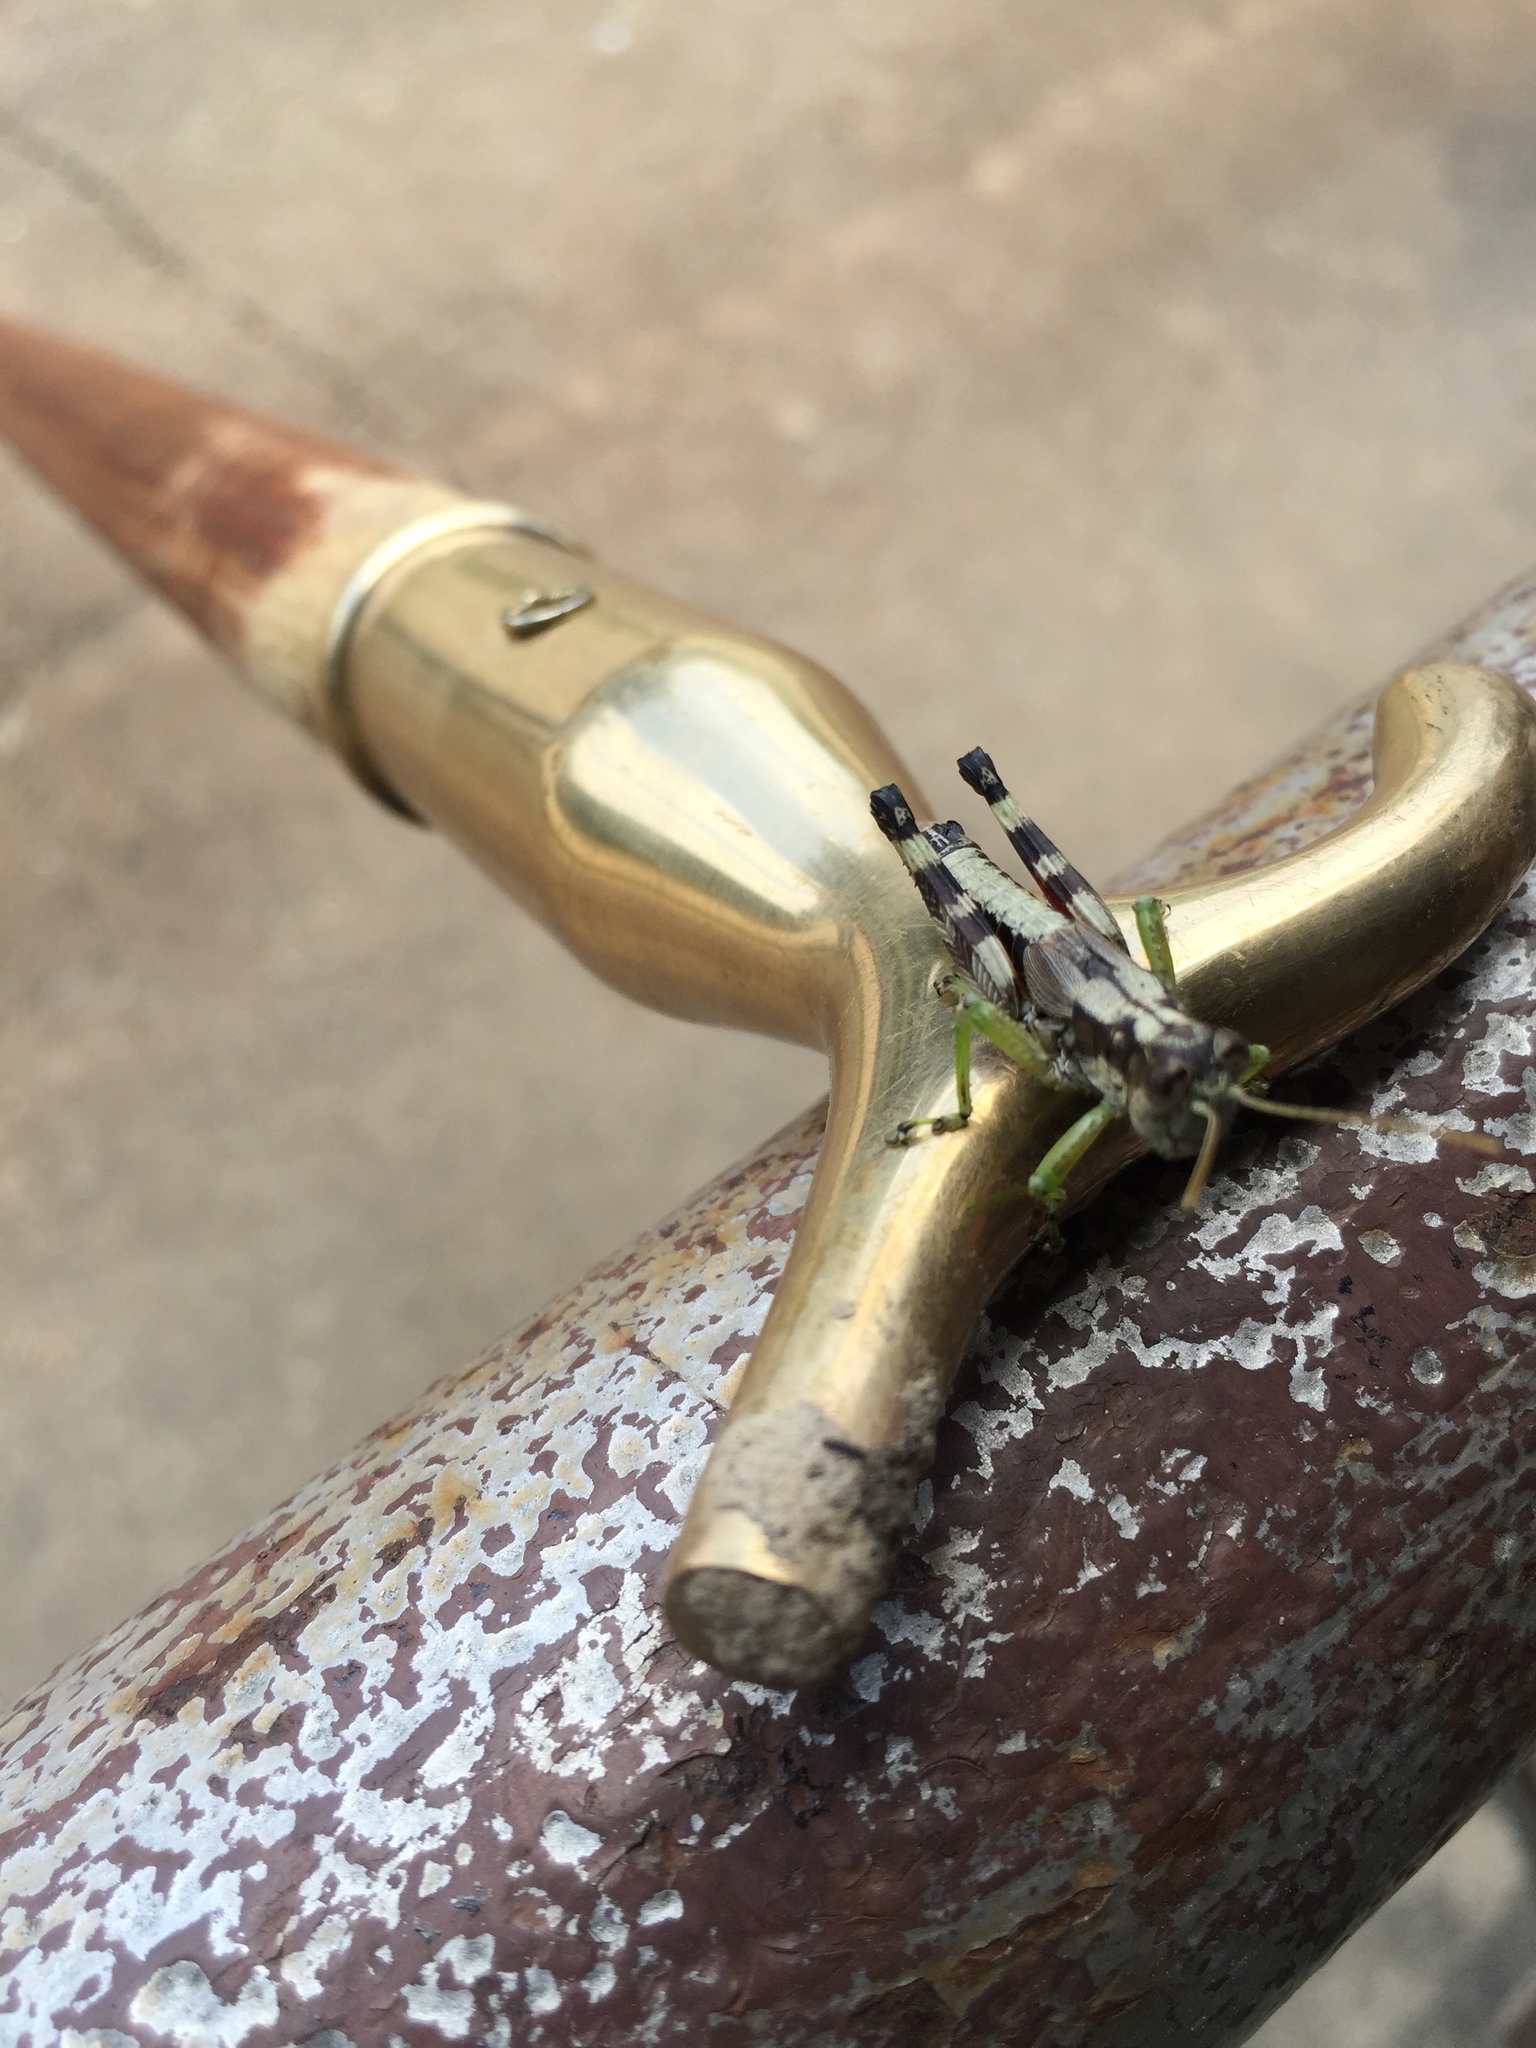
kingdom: Animalia
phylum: Arthropoda
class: Insecta
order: Orthoptera
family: Acrididae
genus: Dendrotettix
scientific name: Dendrotettix quercus
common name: Post oak grasshopper
